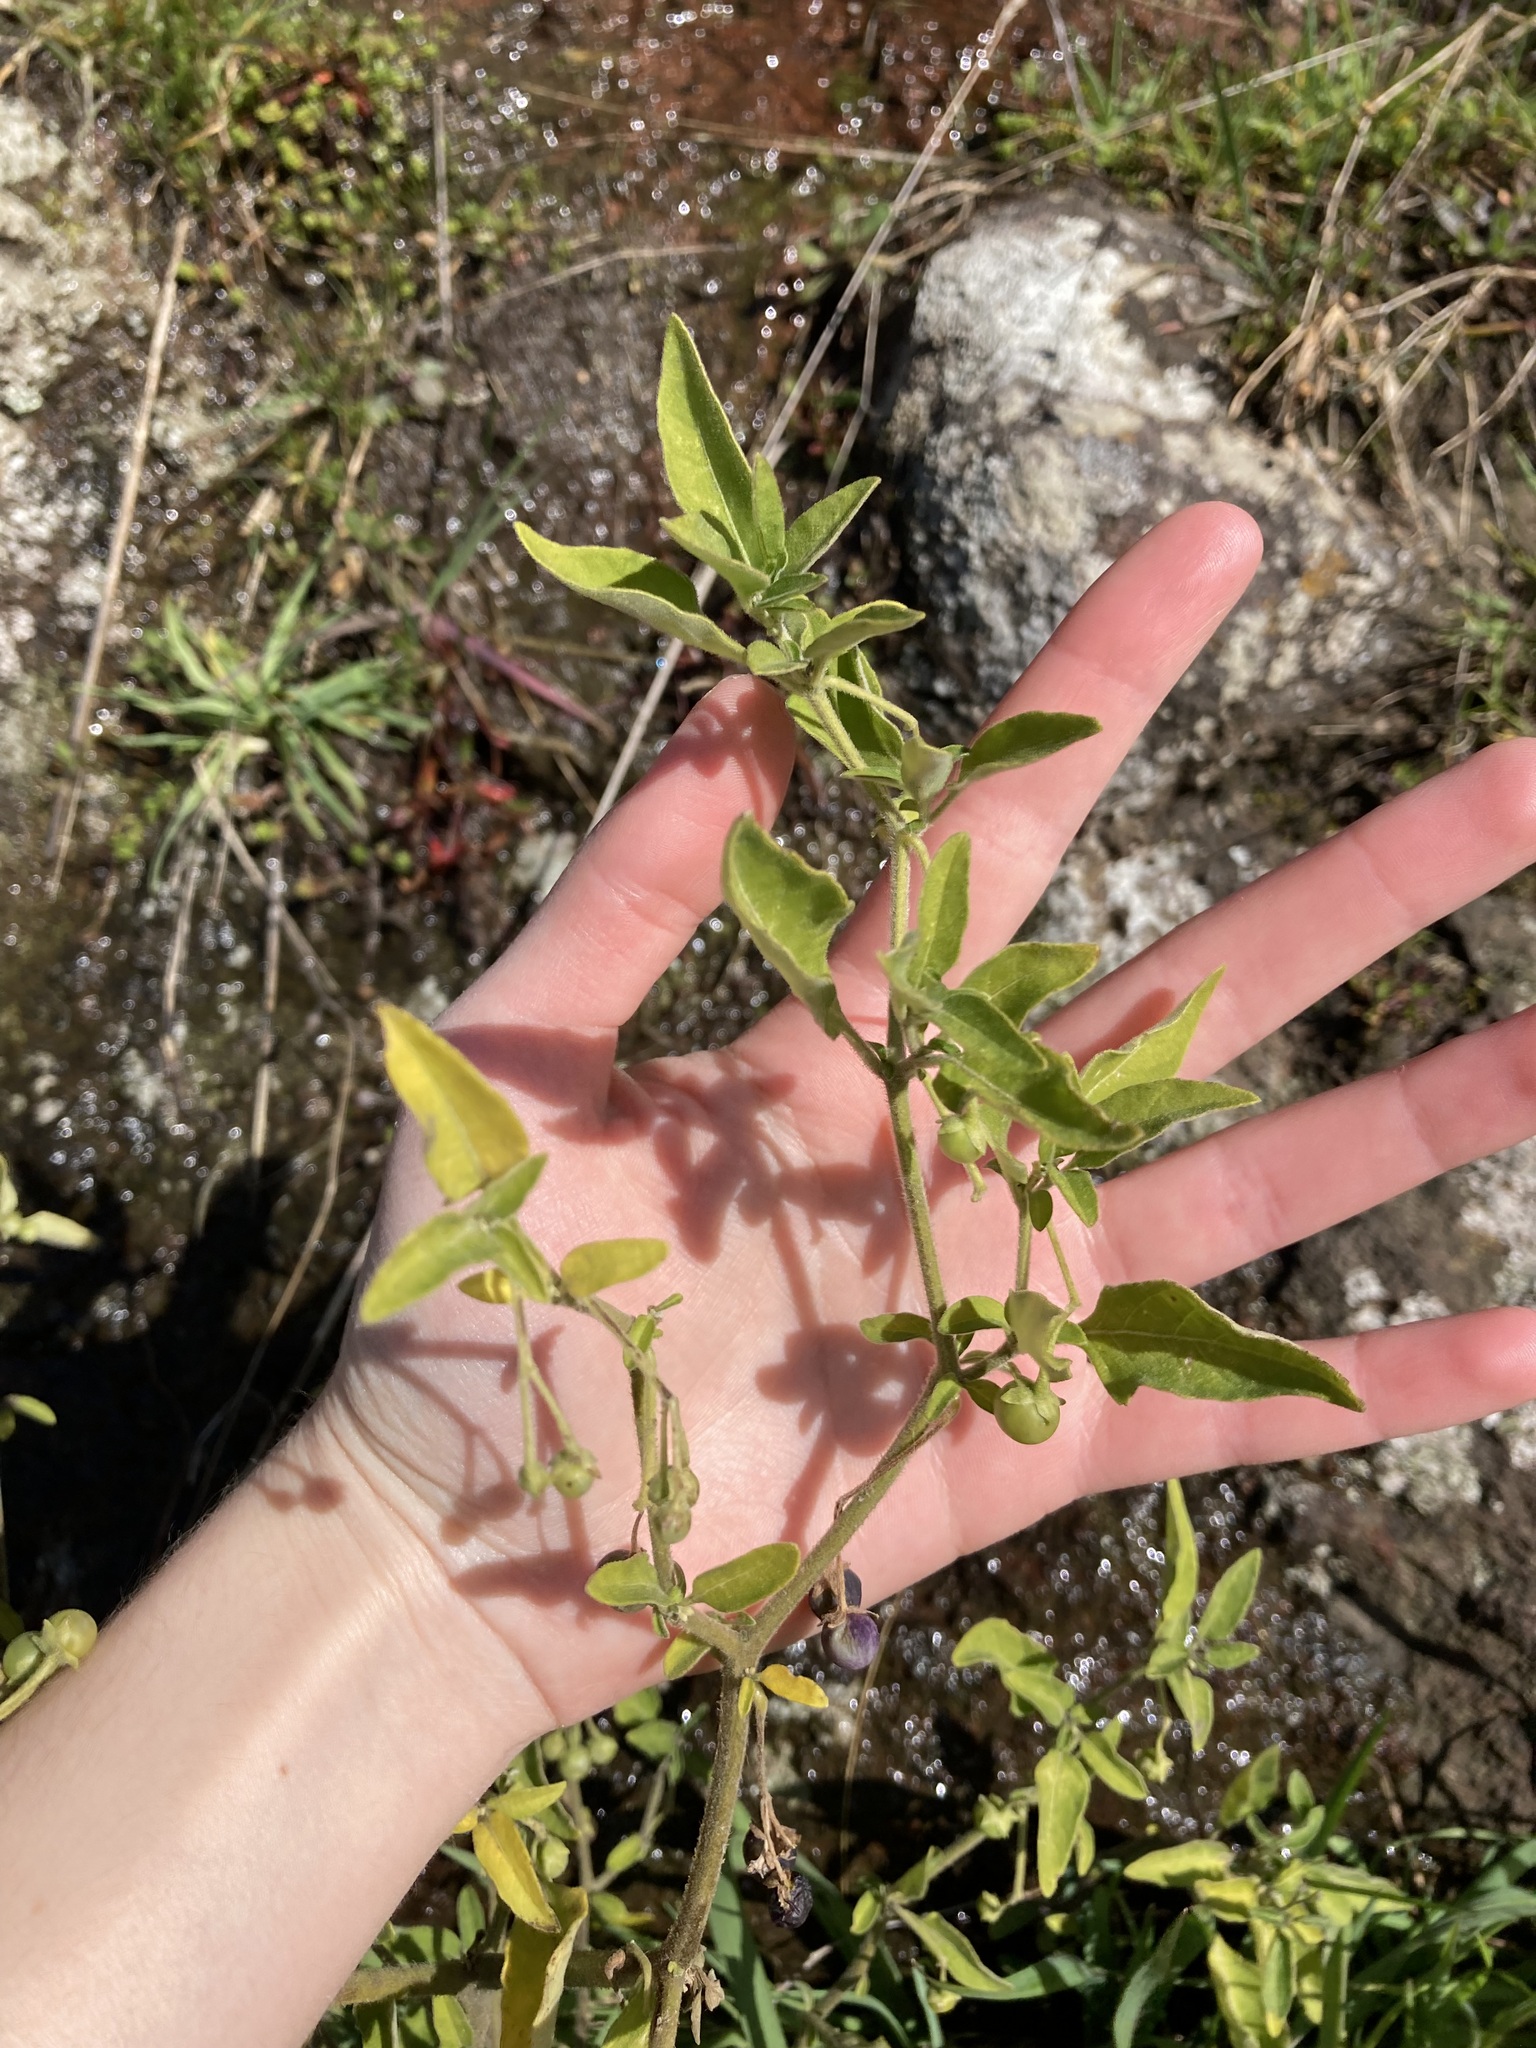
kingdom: Plantae
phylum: Tracheophyta
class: Magnoliopsida
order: Solanales
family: Solanaceae
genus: Solanum
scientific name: Solanum chenopodioides
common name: Tall nightshade
